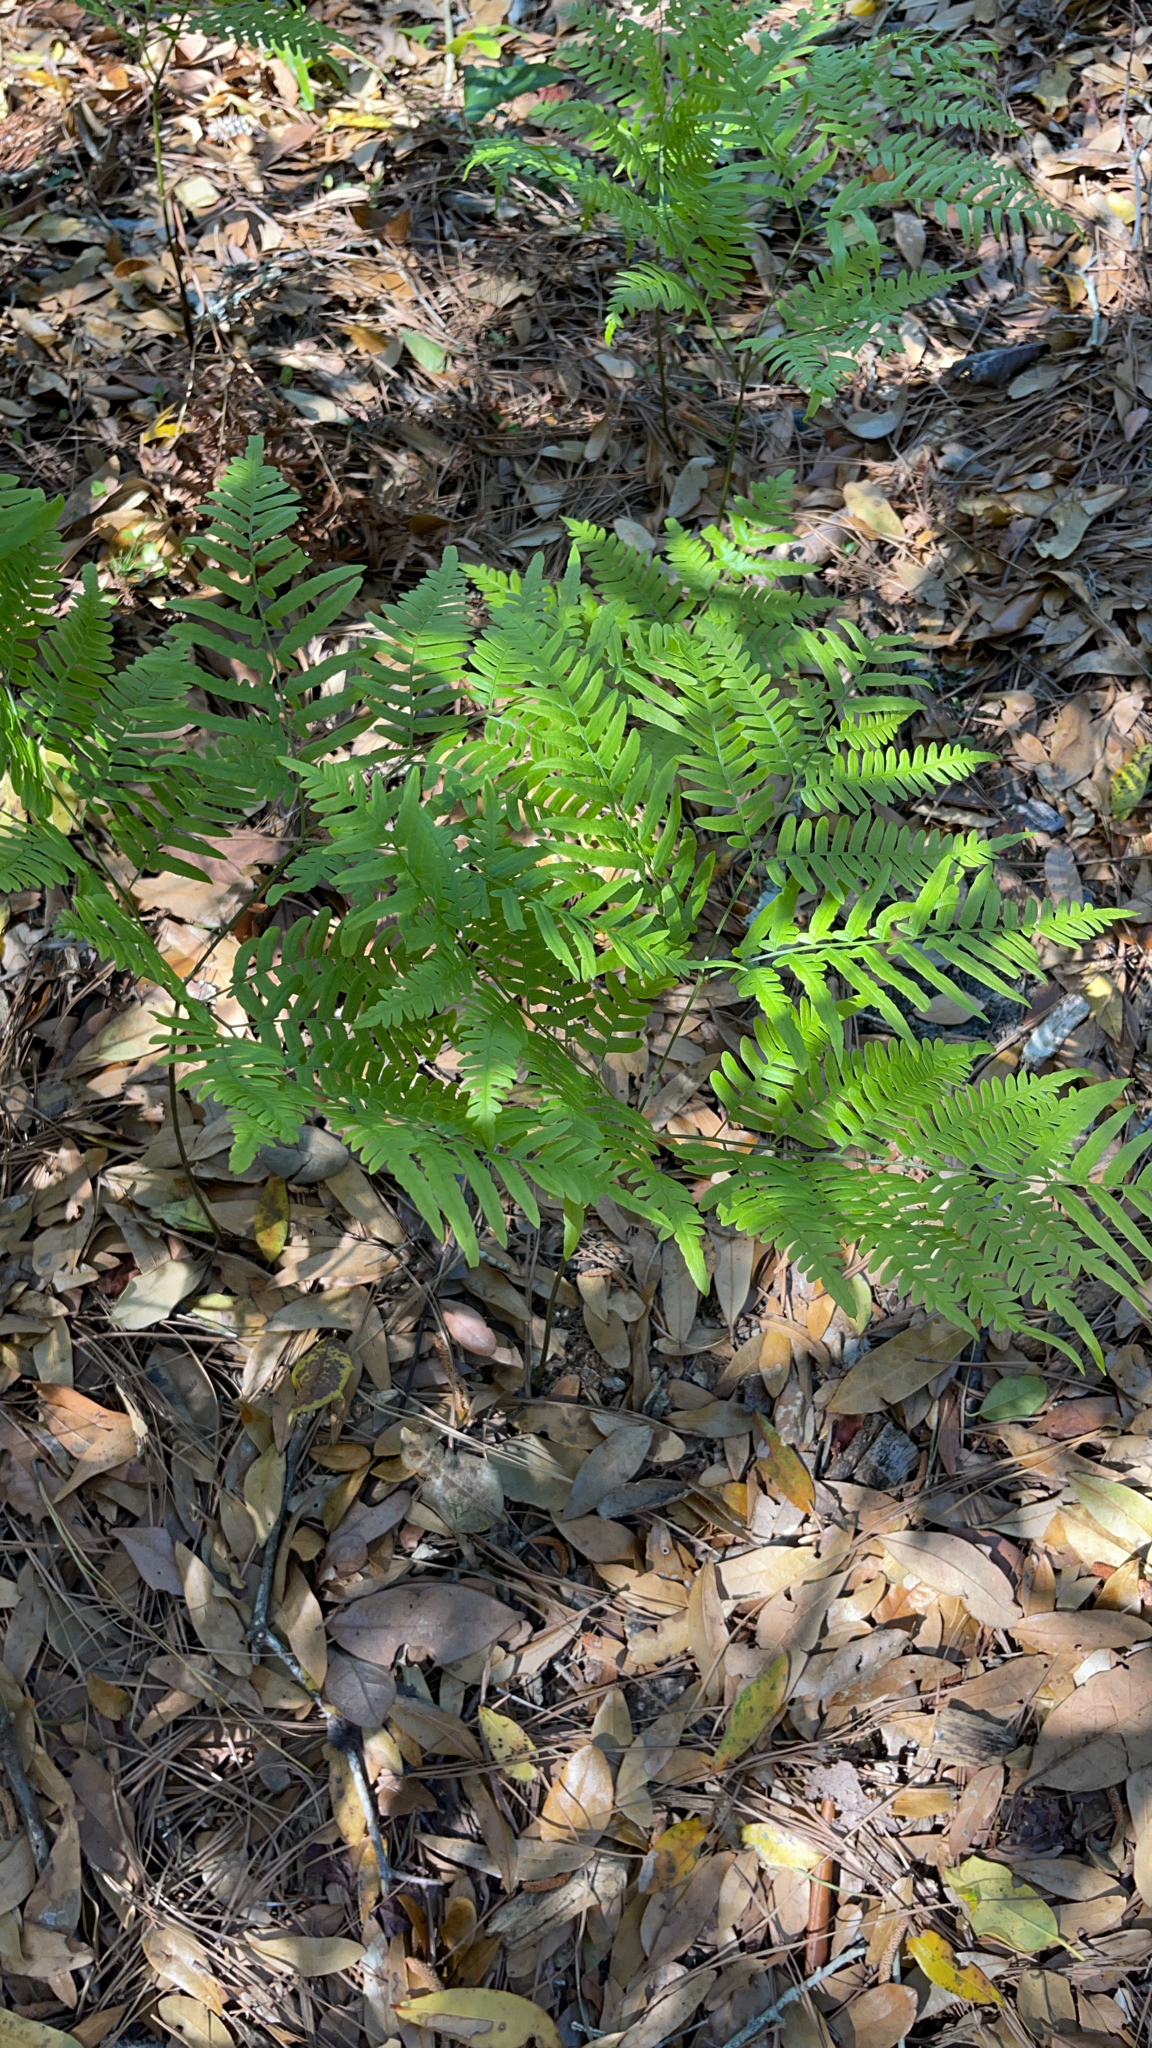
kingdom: Plantae
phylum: Tracheophyta
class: Polypodiopsida
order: Polypodiales
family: Dennstaedtiaceae
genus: Pteridium
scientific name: Pteridium aquilinum
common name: Bracken
